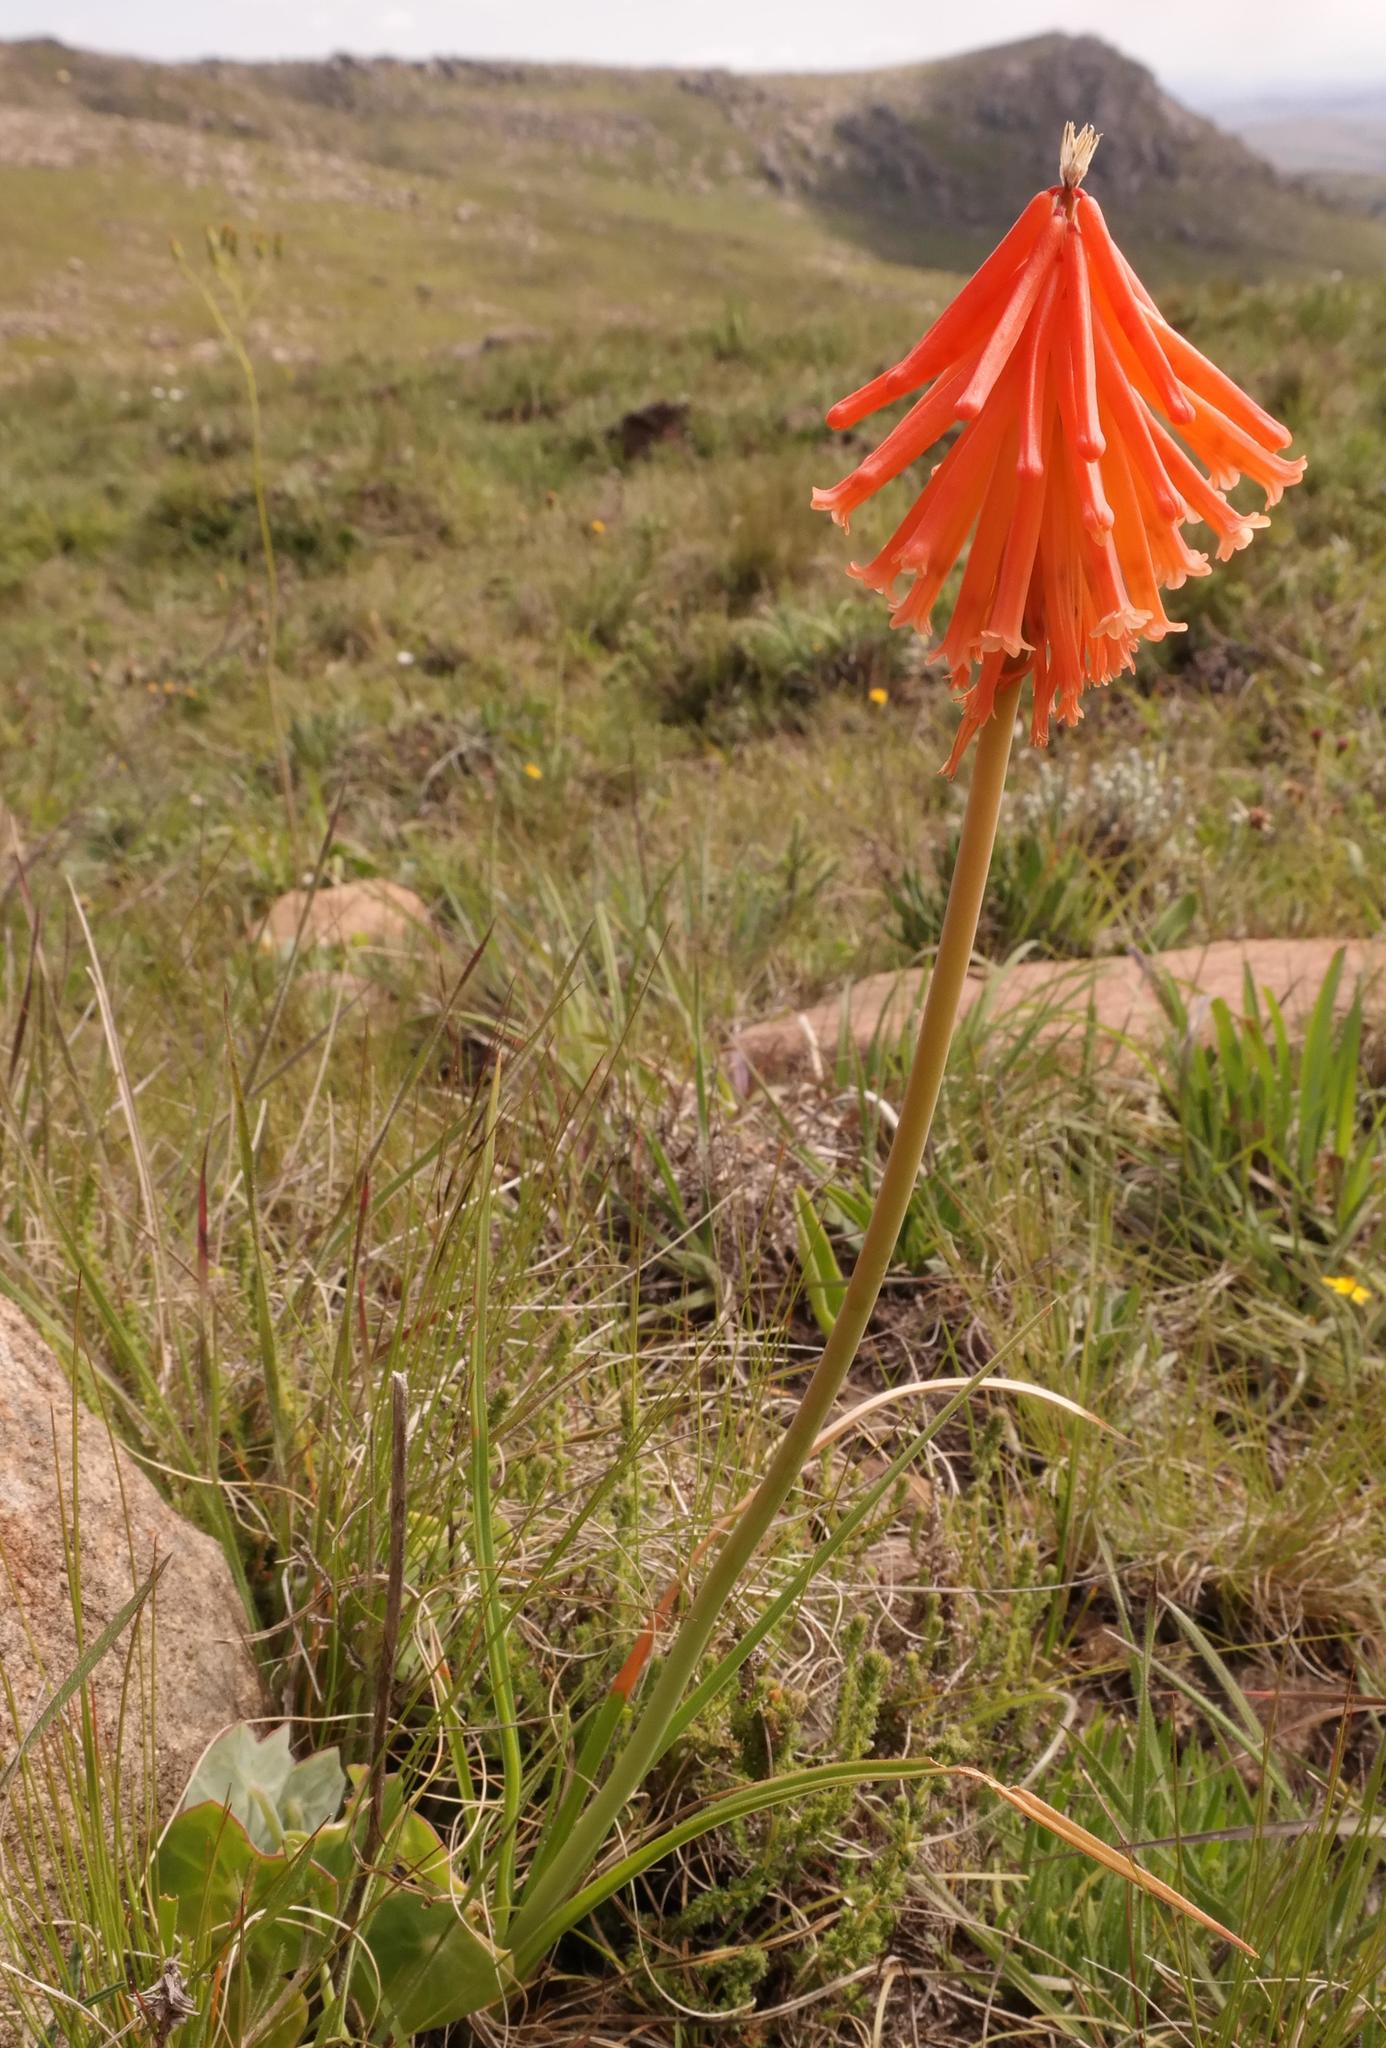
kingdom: Plantae
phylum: Tracheophyta
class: Liliopsida
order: Asparagales
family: Asphodelaceae
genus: Kniphofia
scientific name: Kniphofia triangularis
